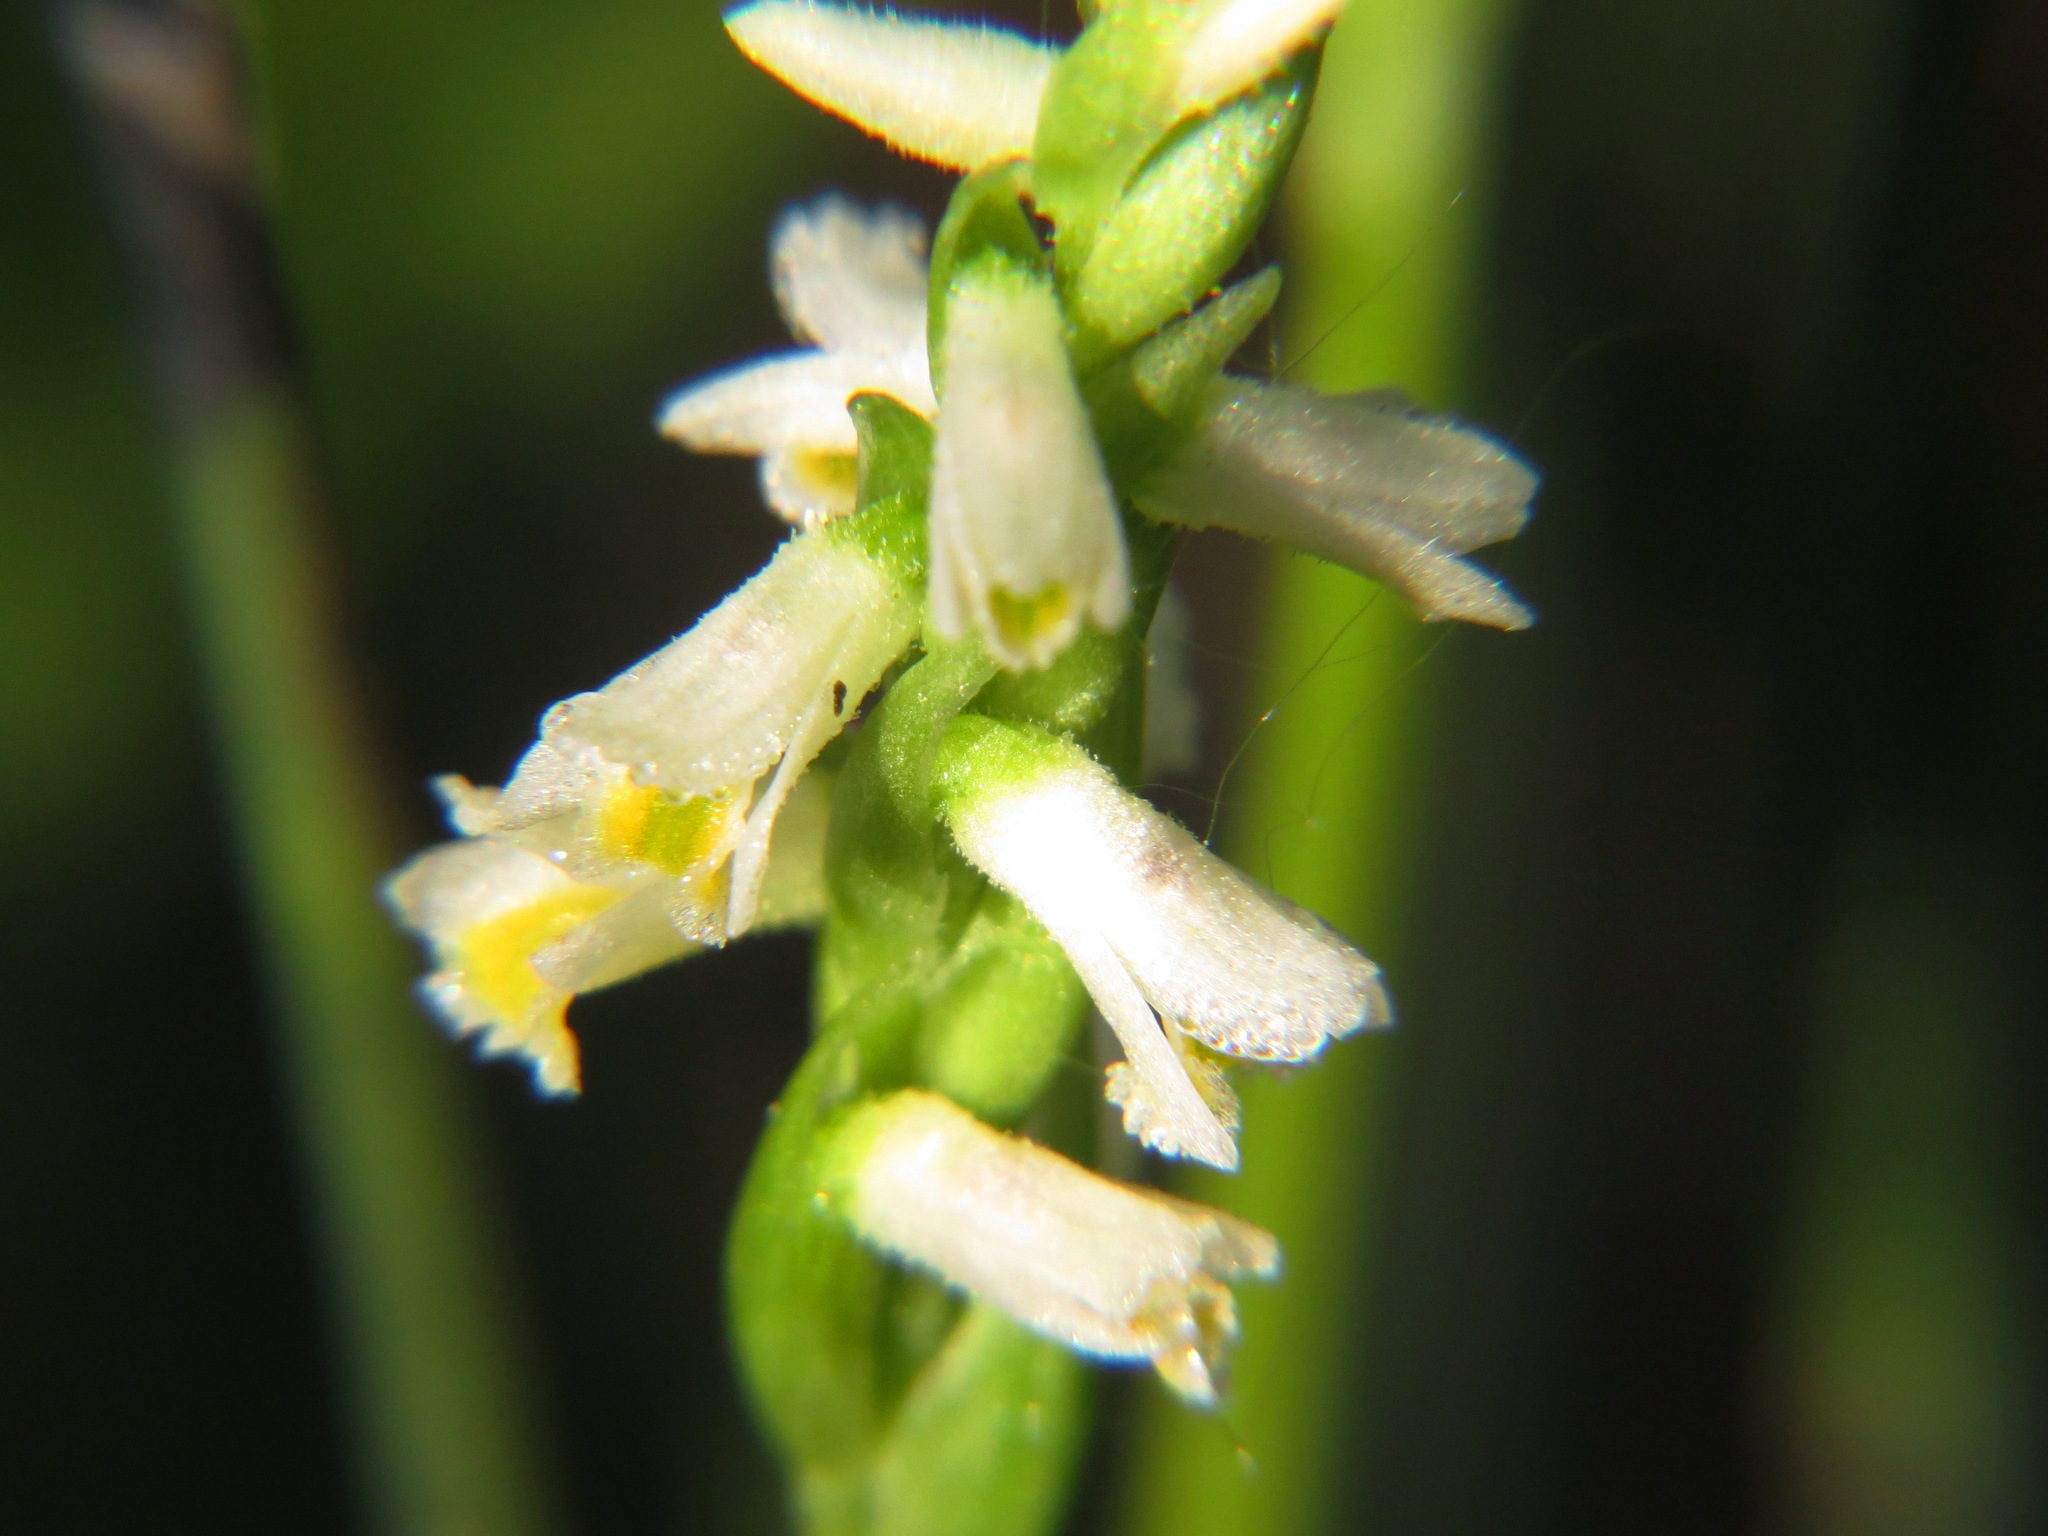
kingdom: Plantae
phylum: Tracheophyta
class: Liliopsida
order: Asparagales
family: Orchidaceae
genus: Spiranthes
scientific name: Spiranthes lucida
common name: Broad-leaved ladies'-tresses
